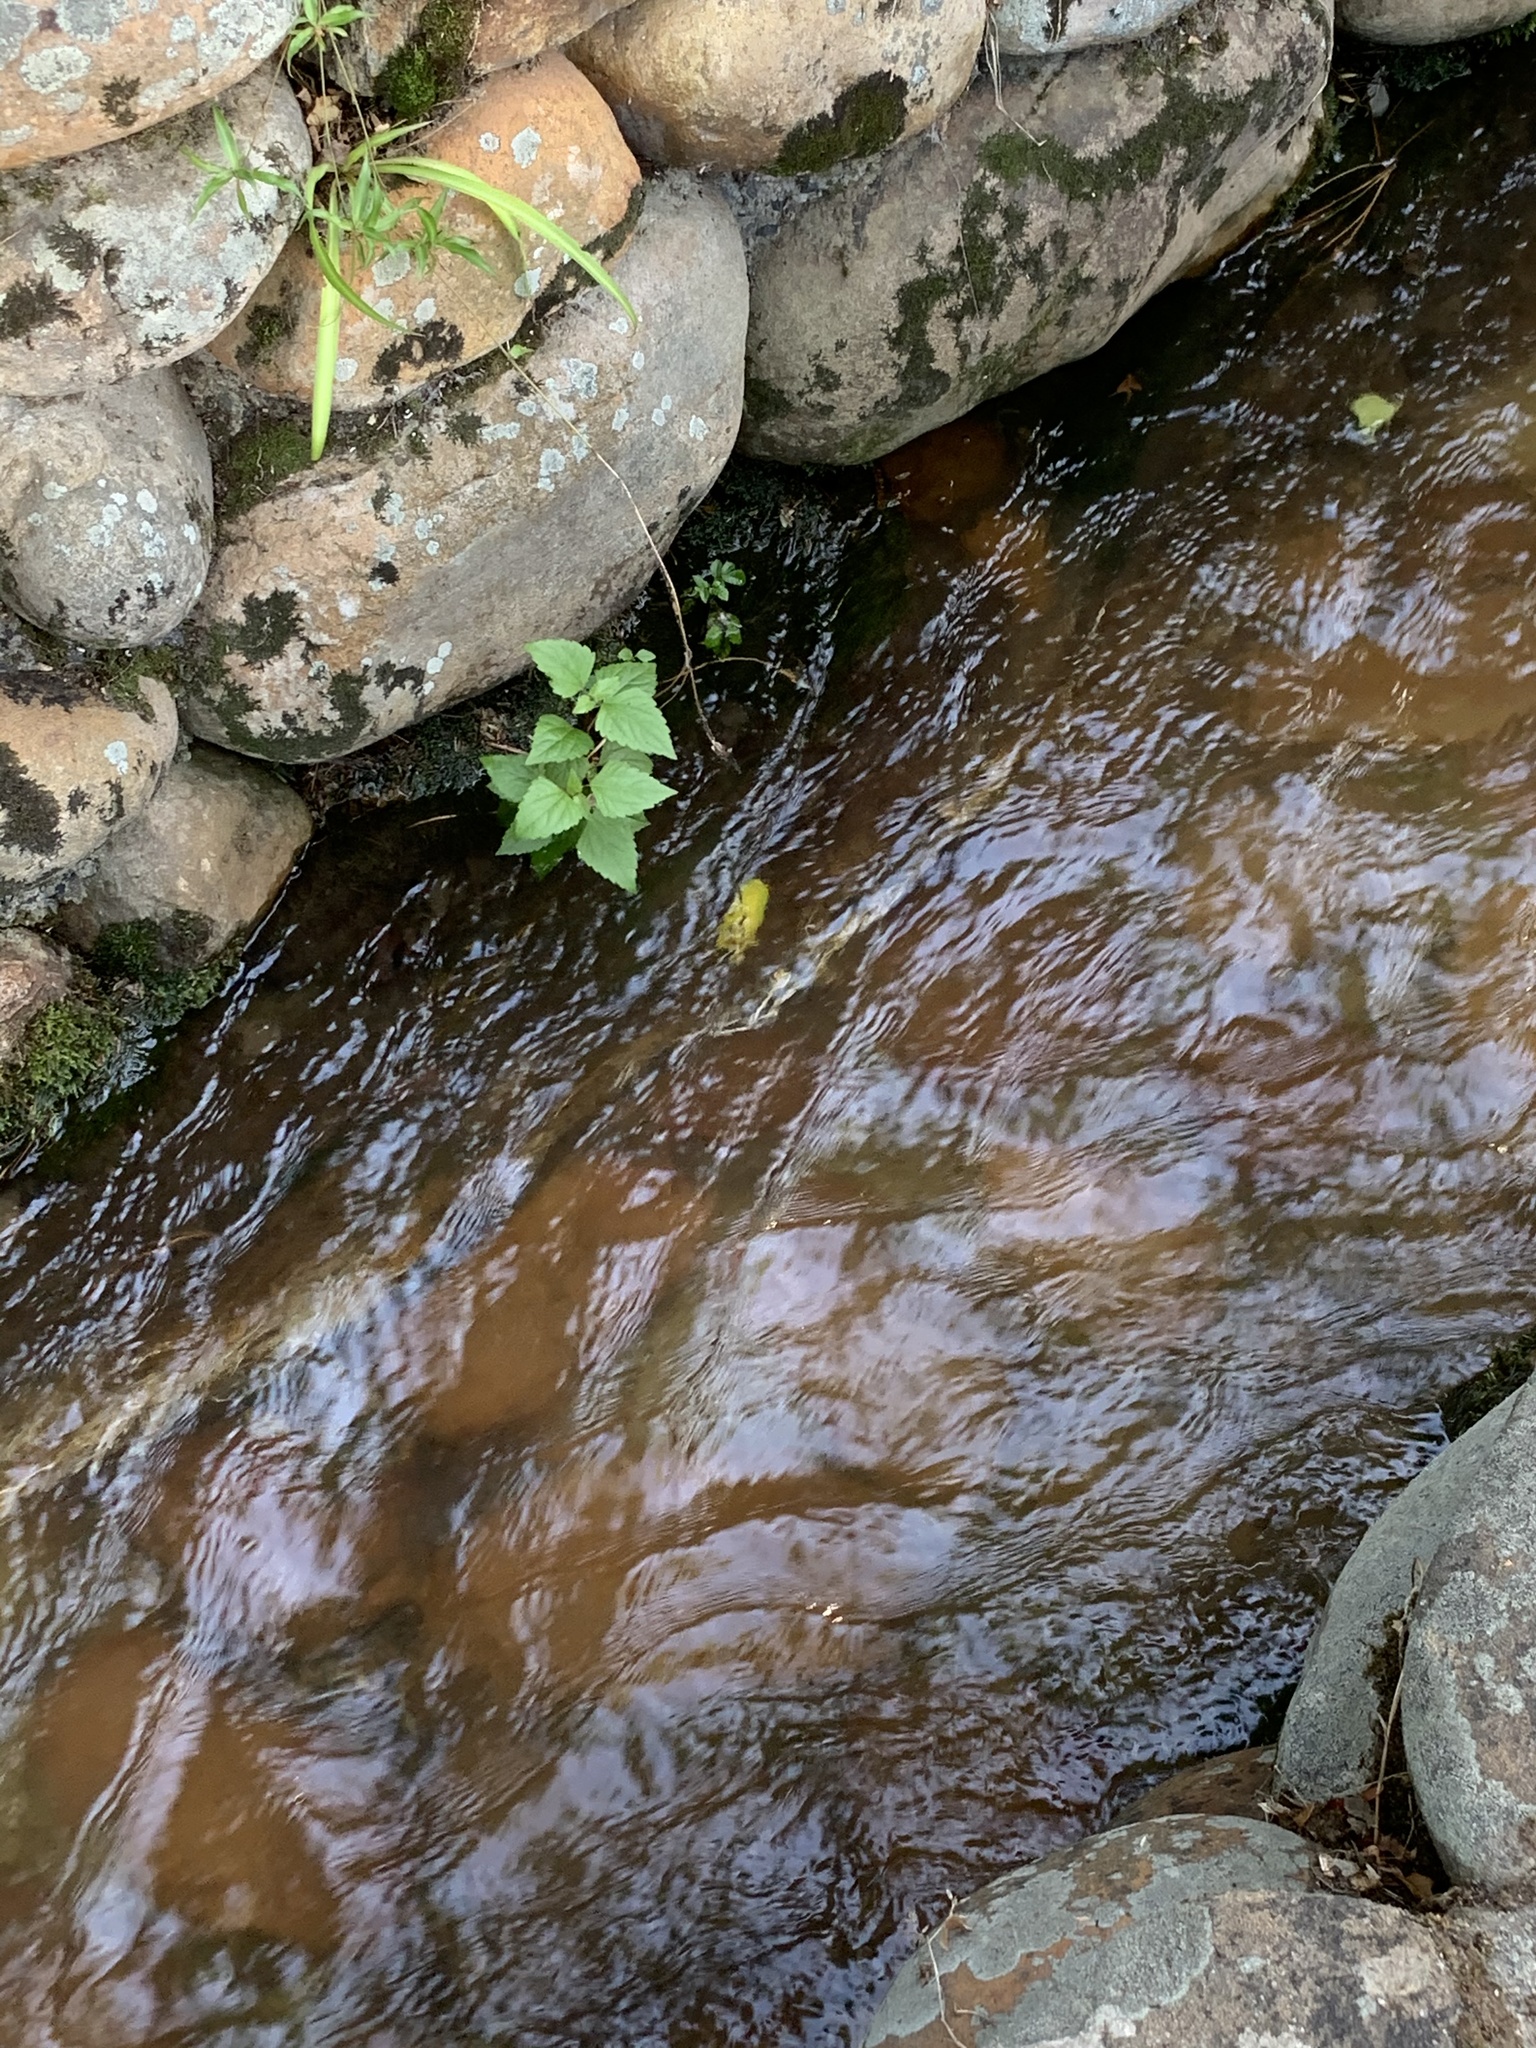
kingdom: Plantae
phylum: Tracheophyta
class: Magnoliopsida
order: Asterales
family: Asteraceae
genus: Ageratina
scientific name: Ageratina adenophora
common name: Sticky snakeroot
